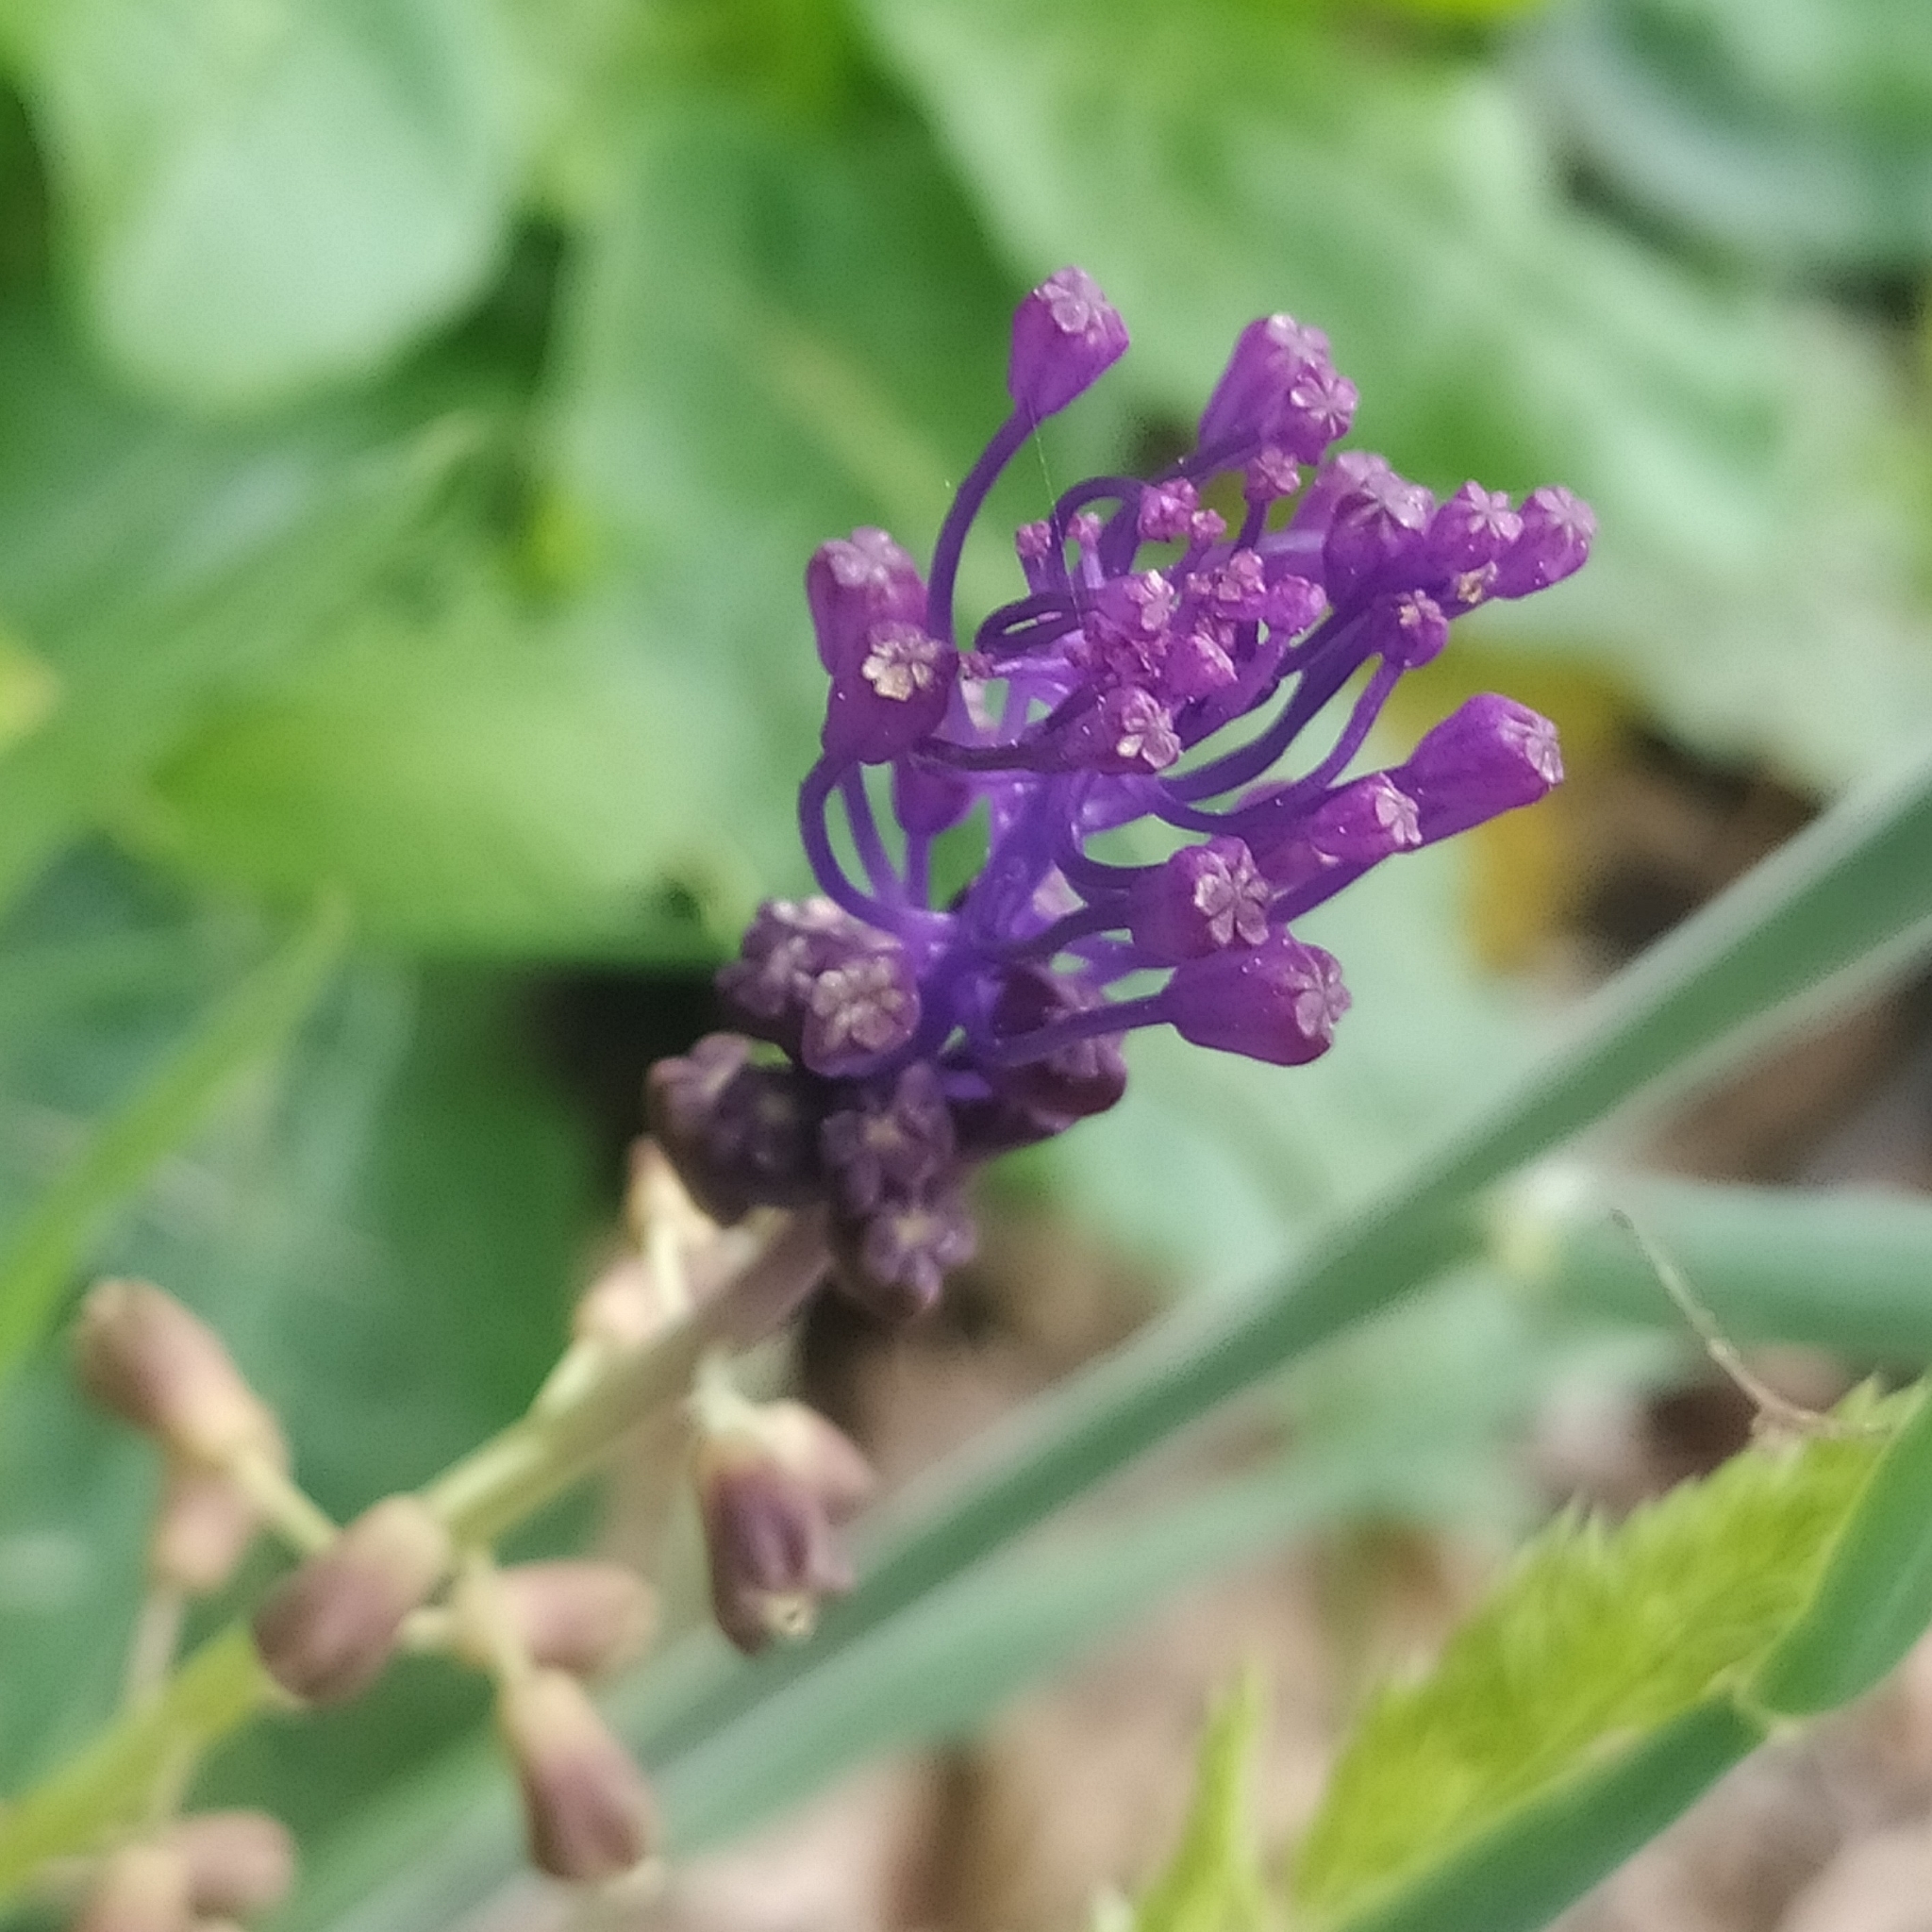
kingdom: Plantae
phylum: Tracheophyta
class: Liliopsida
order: Asparagales
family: Asparagaceae
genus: Muscari
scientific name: Muscari comosum
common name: Tassel hyacinth
